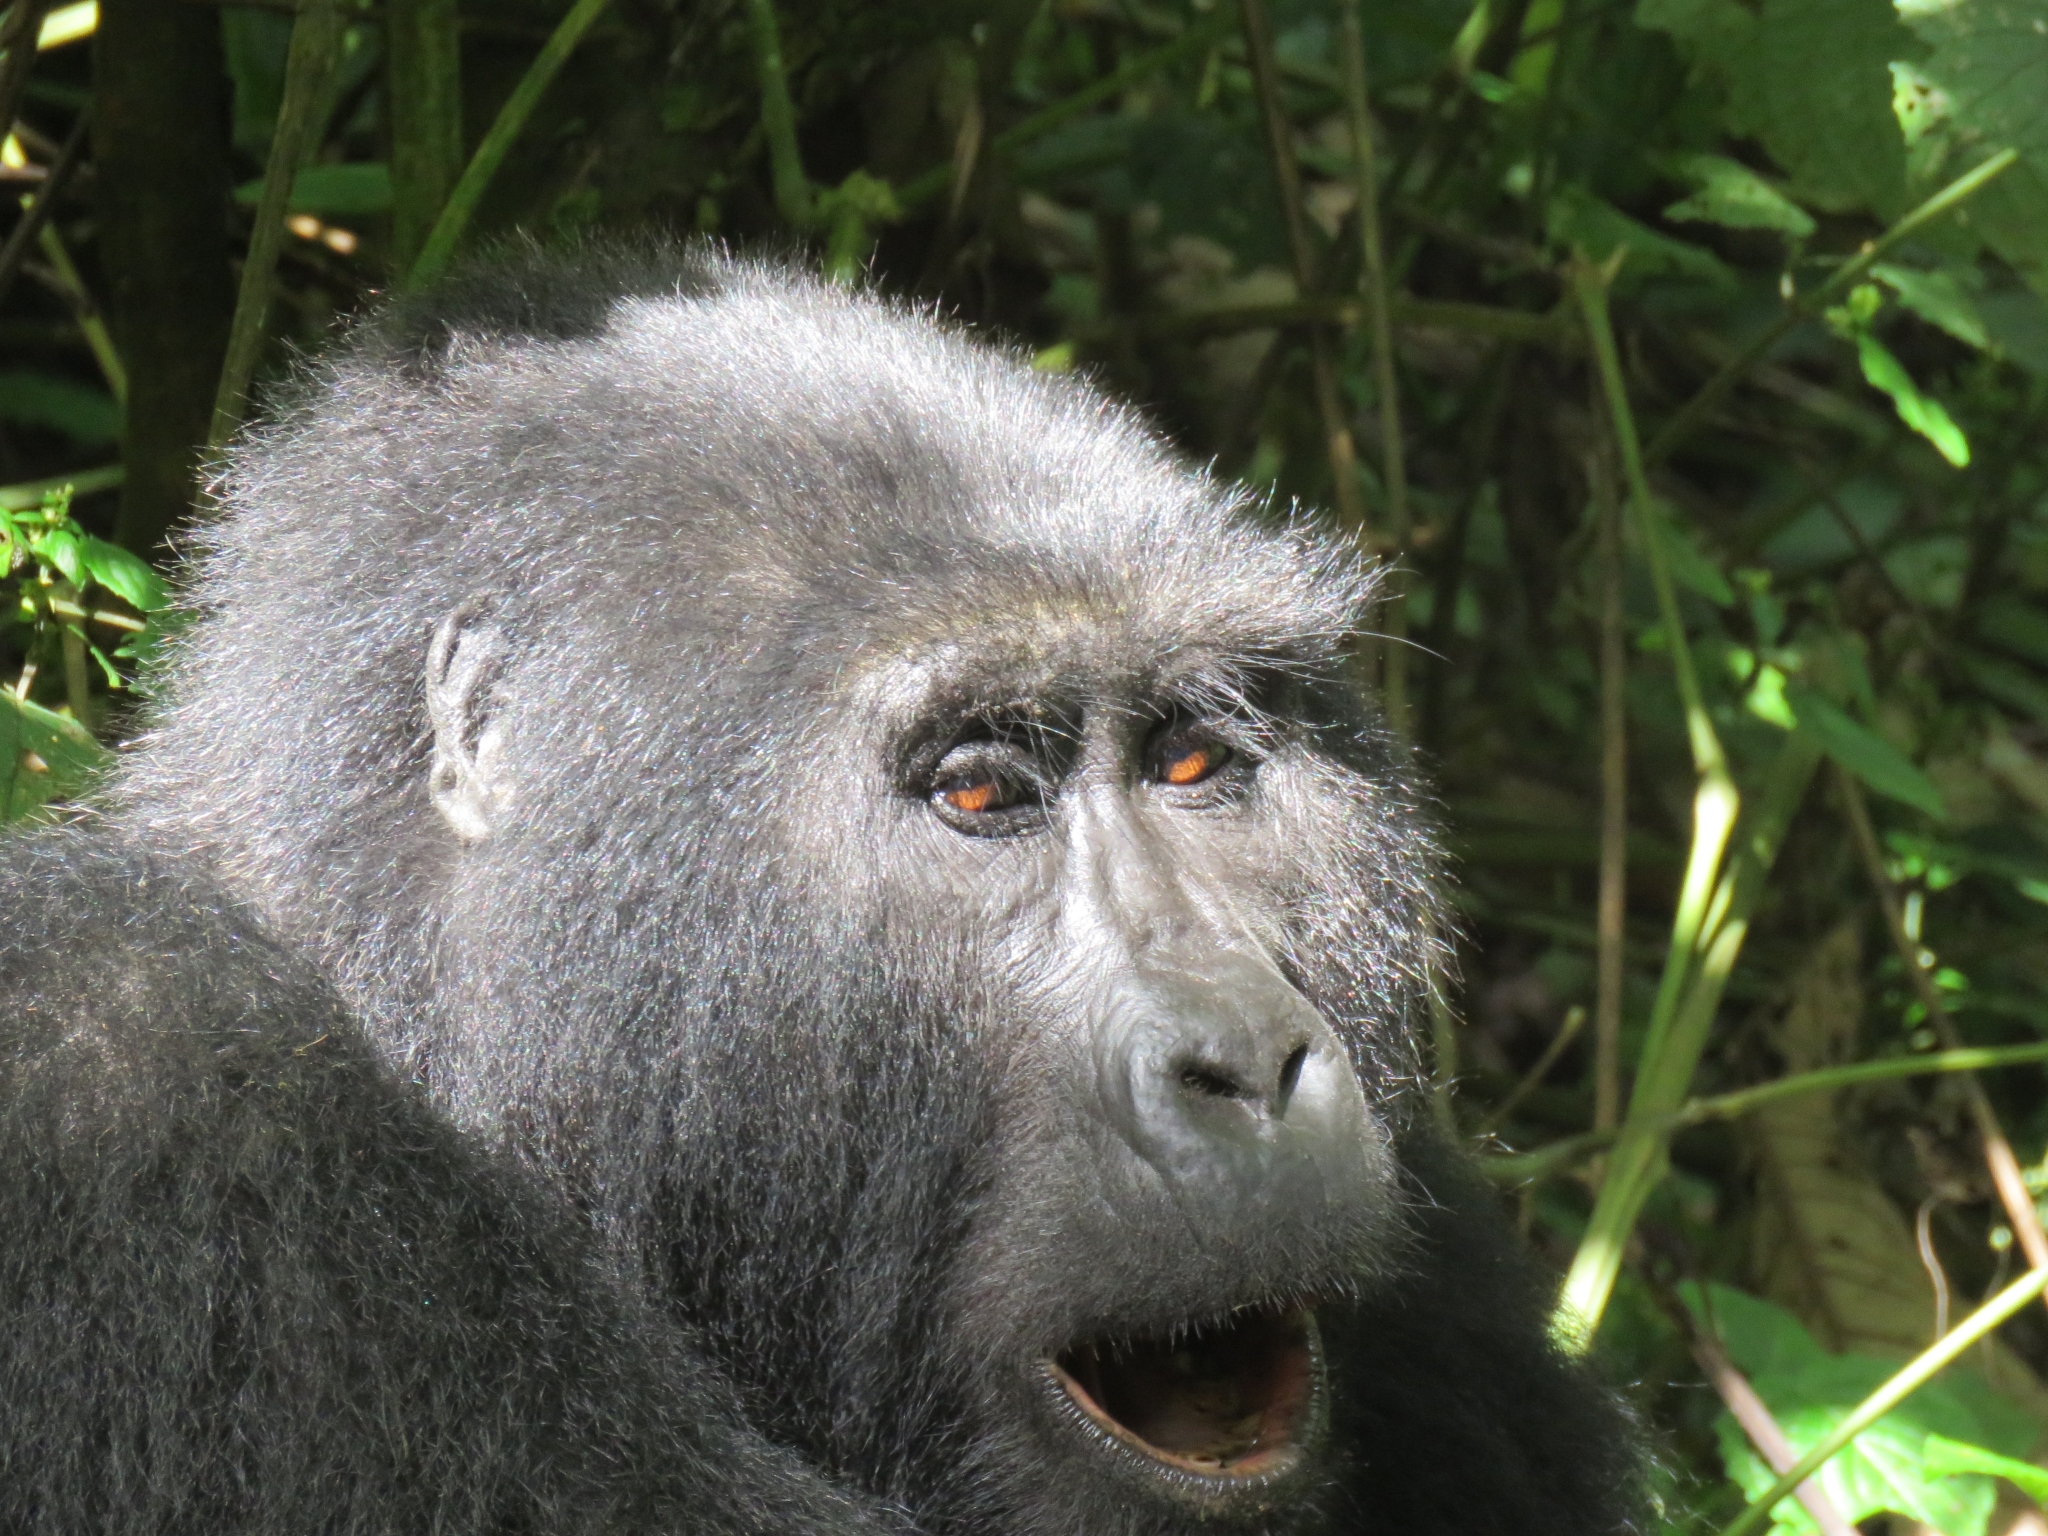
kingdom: Animalia
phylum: Chordata
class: Mammalia
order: Primates
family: Hominidae
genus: Gorilla
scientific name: Gorilla beringei
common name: Eastern gorilla
